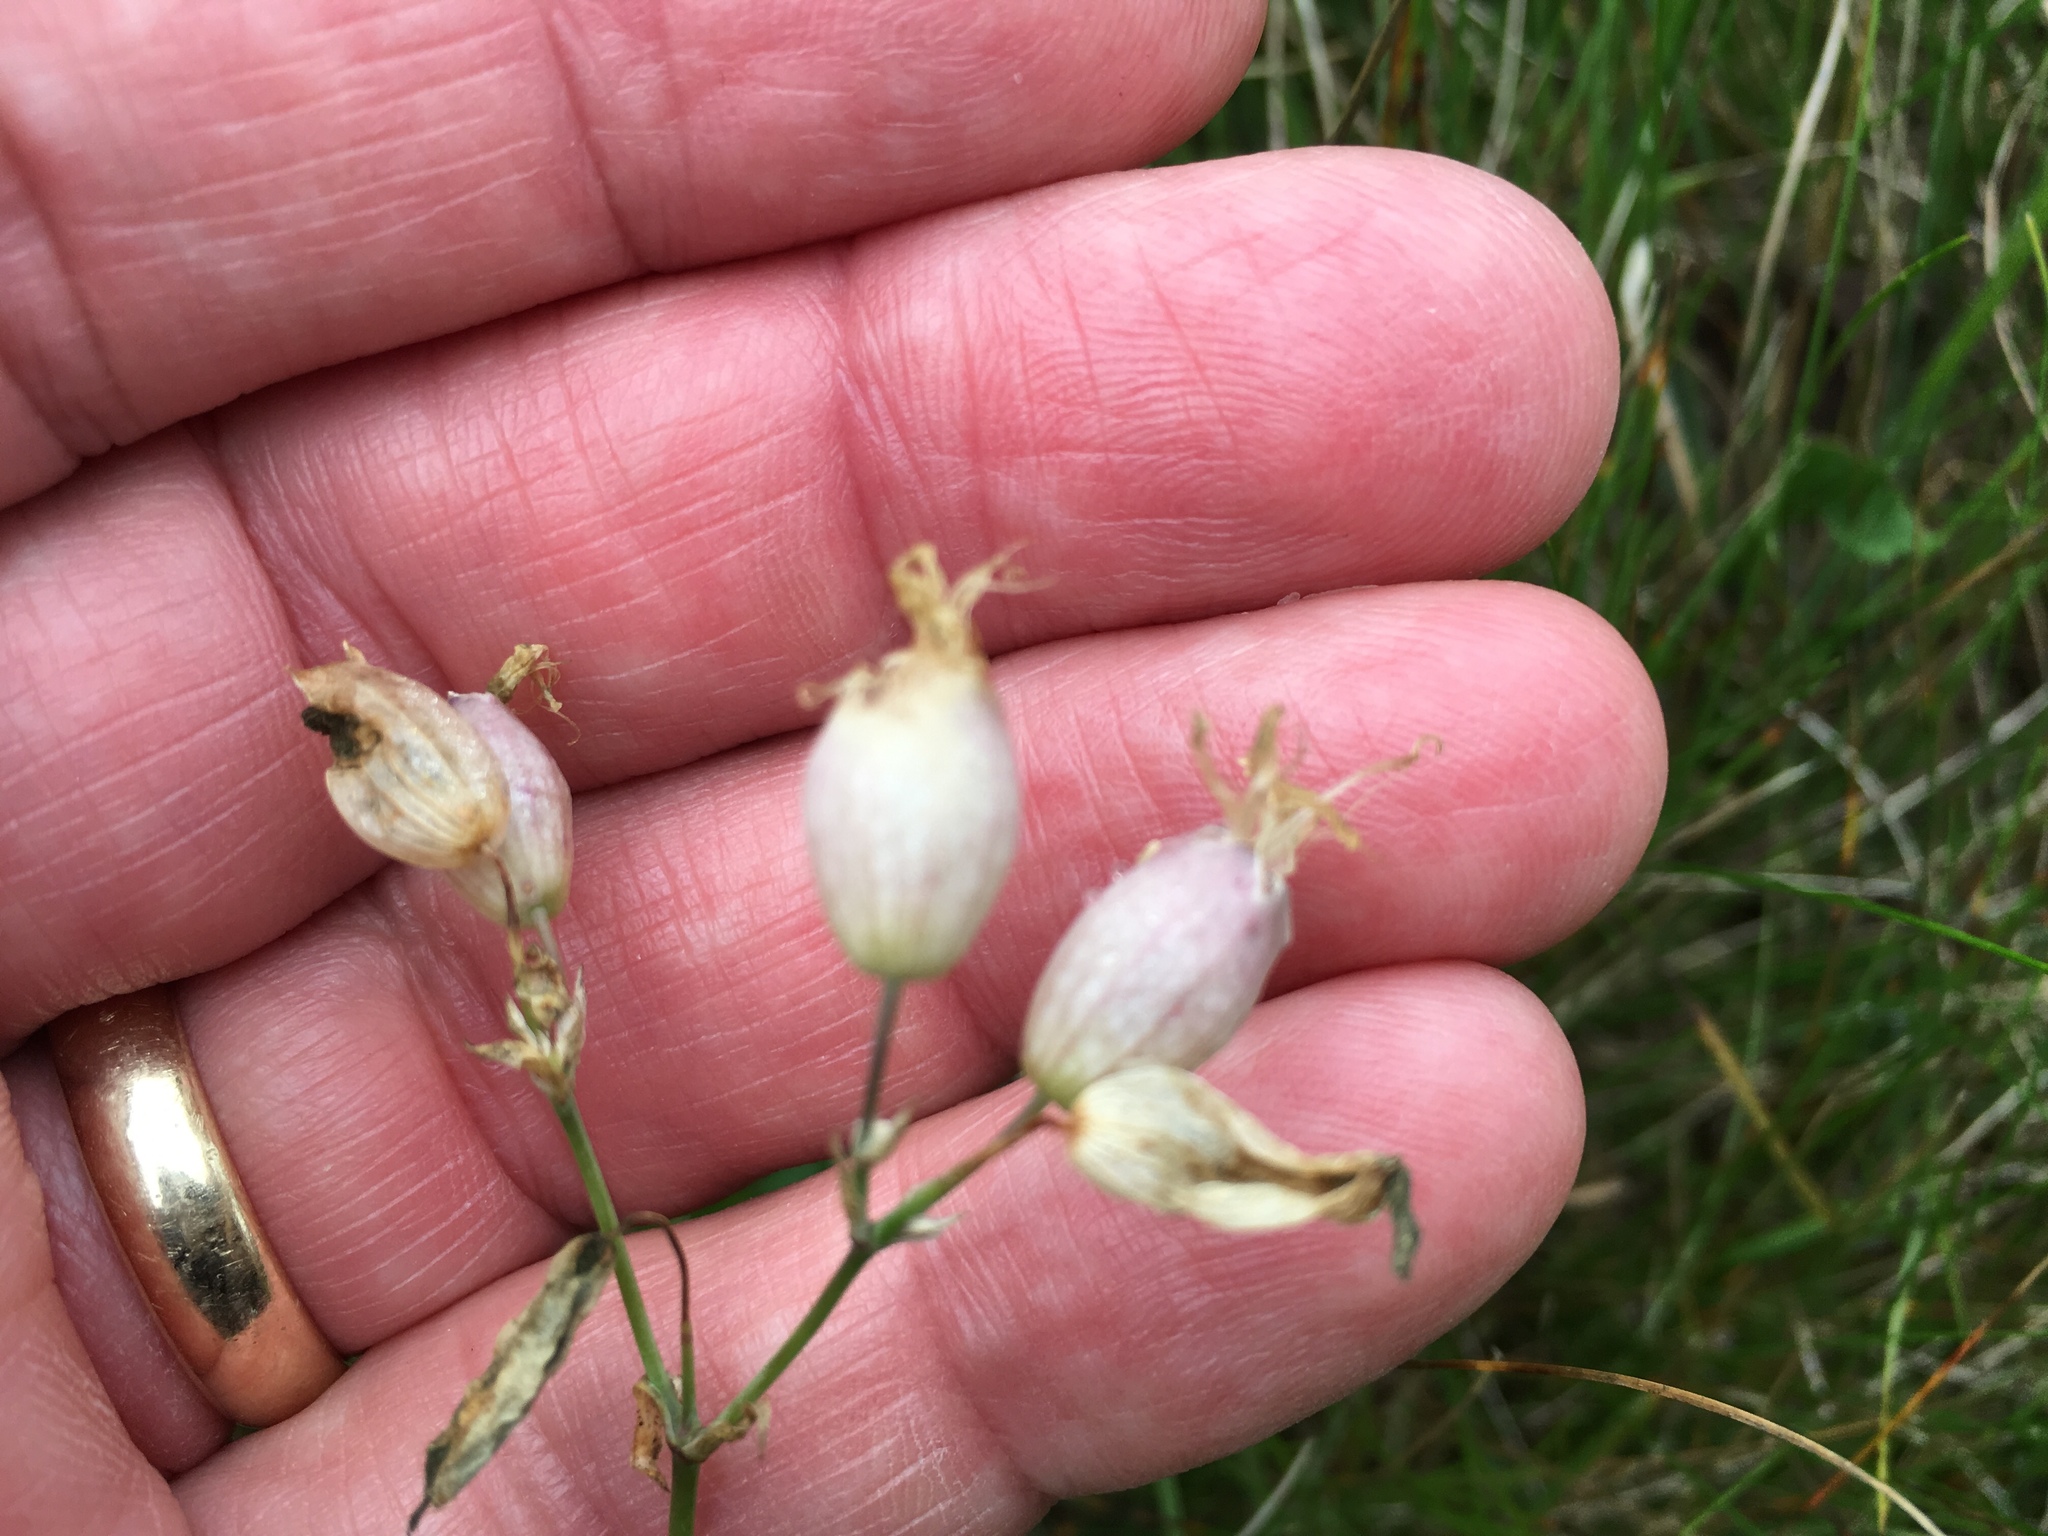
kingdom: Plantae
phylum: Tracheophyta
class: Magnoliopsida
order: Caryophyllales
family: Caryophyllaceae
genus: Silene
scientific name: Silene vulgaris
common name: Bladder campion
